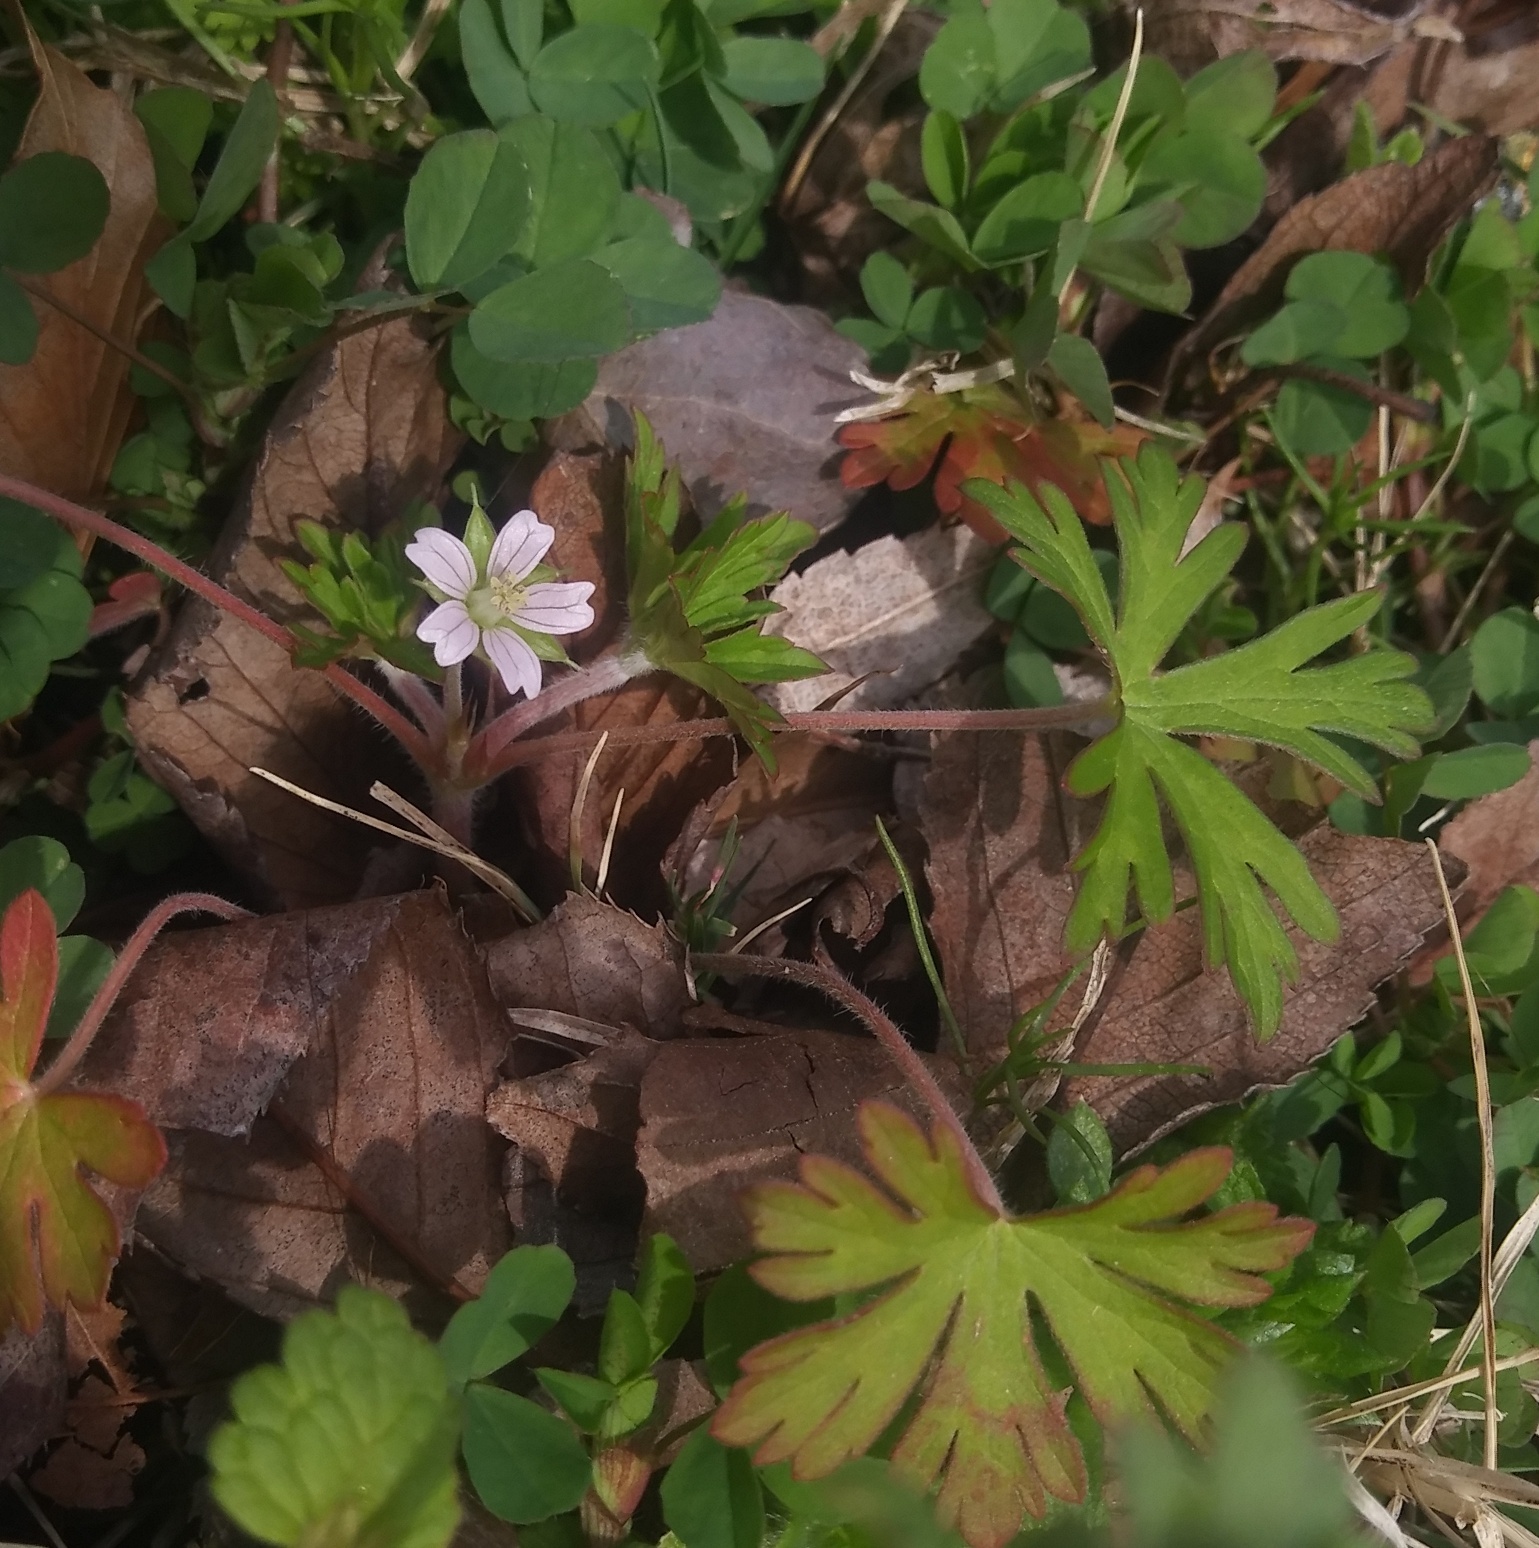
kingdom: Plantae
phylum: Tracheophyta
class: Magnoliopsida
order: Geraniales
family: Geraniaceae
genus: Geranium
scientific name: Geranium carolinianum
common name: Carolina crane's-bill
